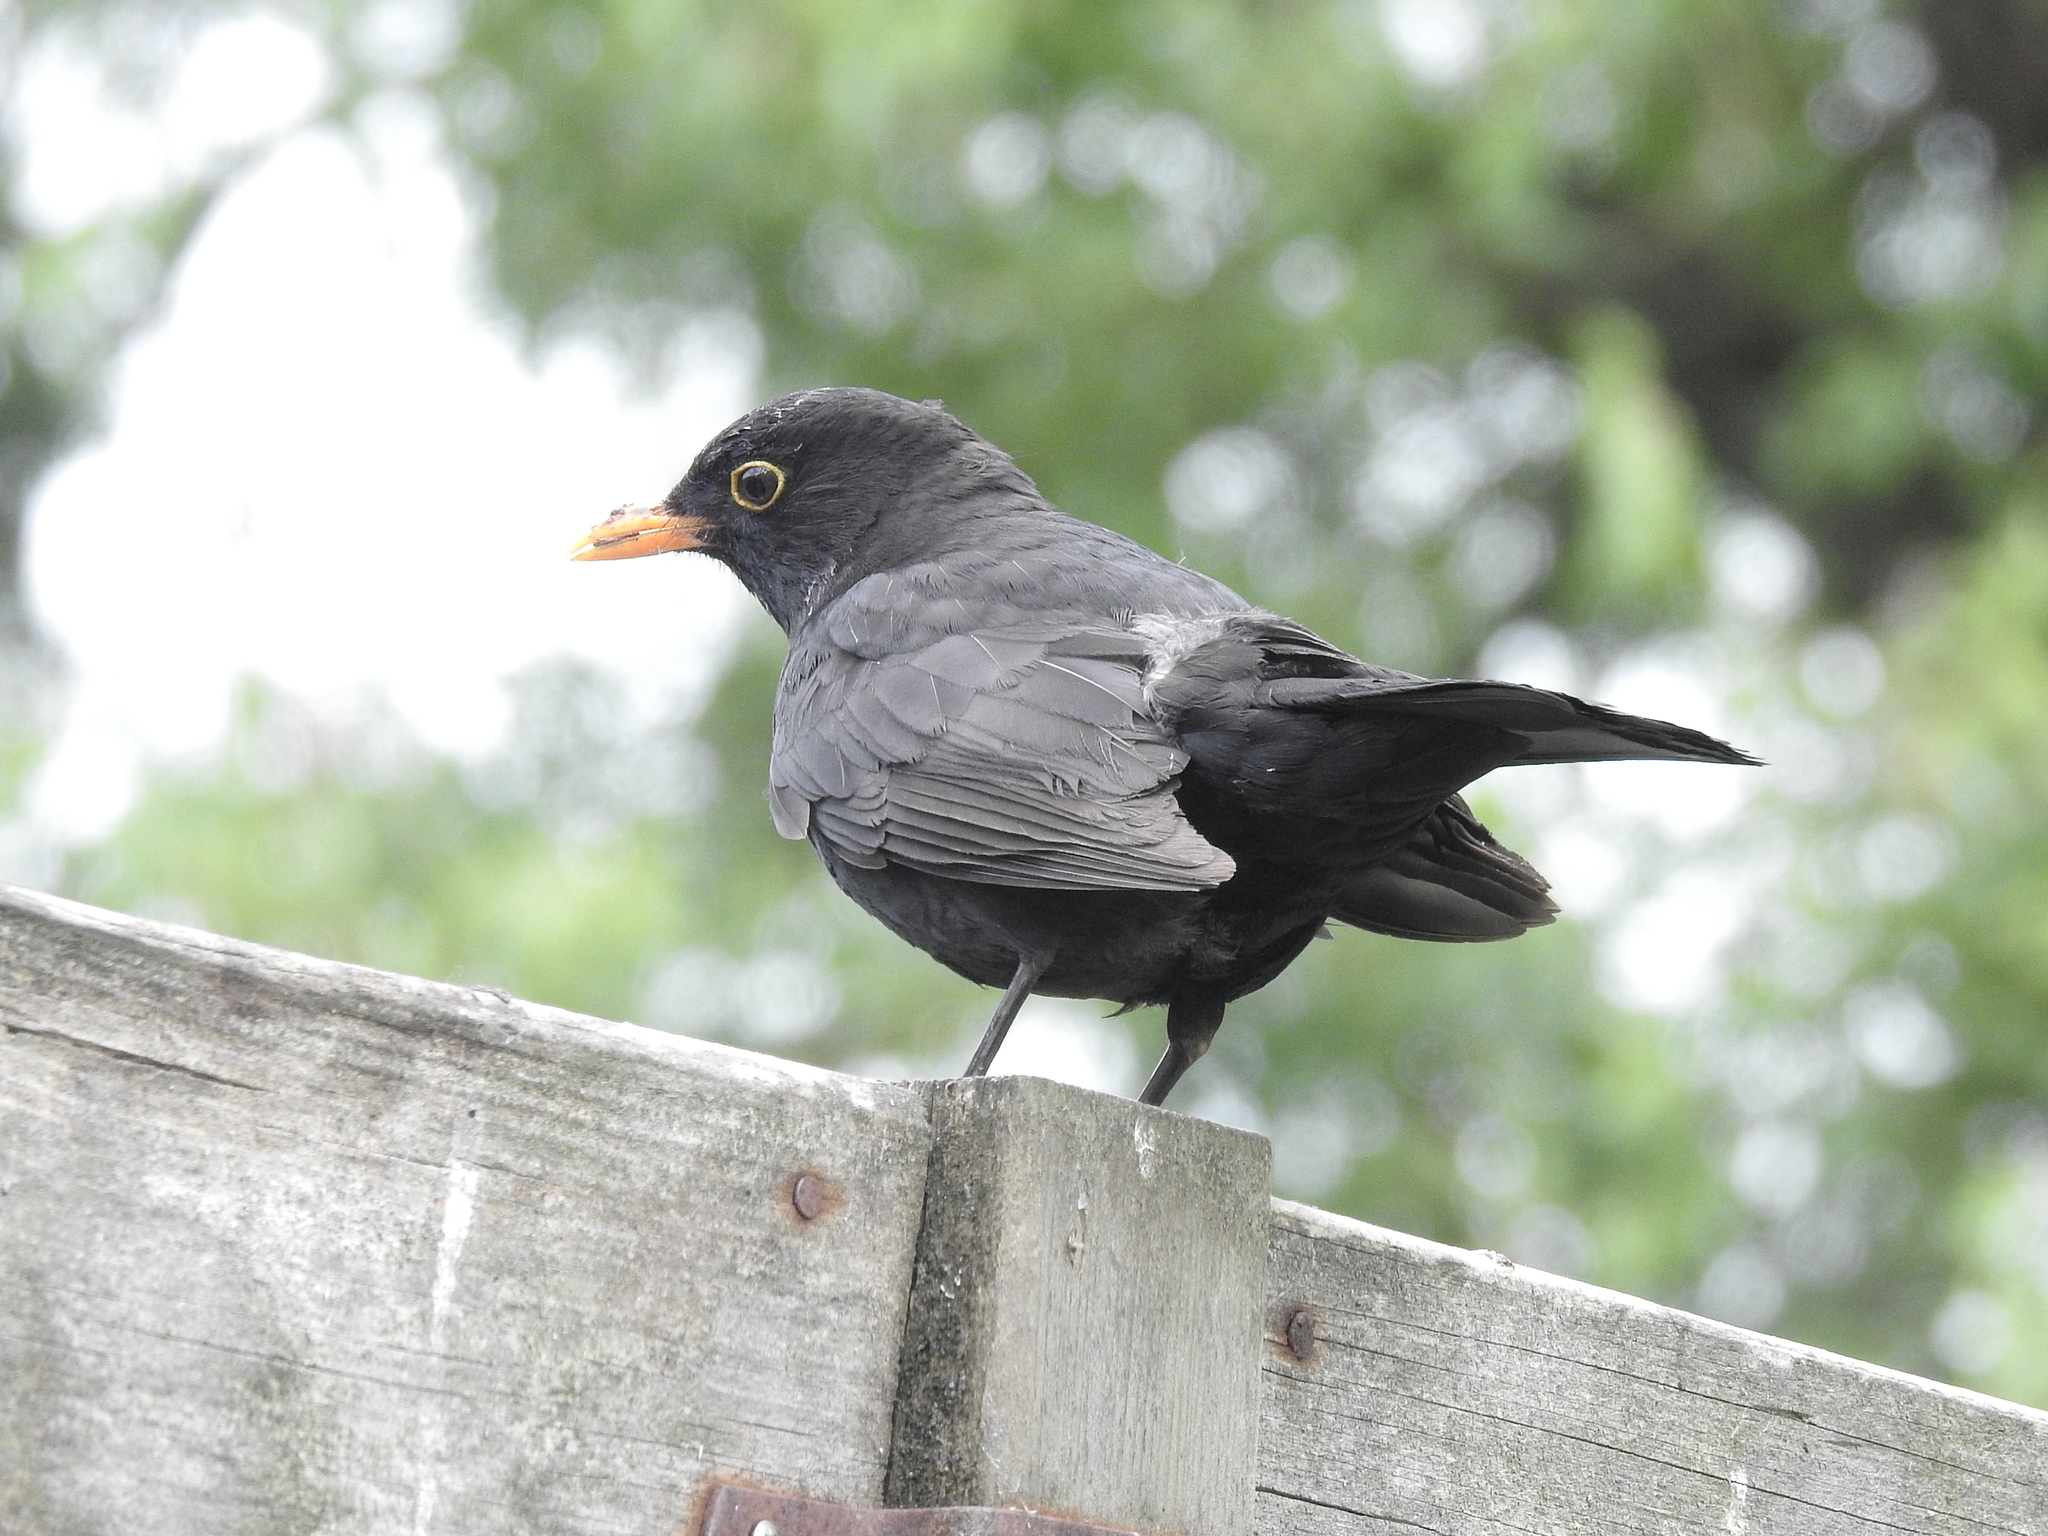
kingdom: Animalia
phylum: Chordata
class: Aves
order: Passeriformes
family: Turdidae
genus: Turdus
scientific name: Turdus merula
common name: Common blackbird
